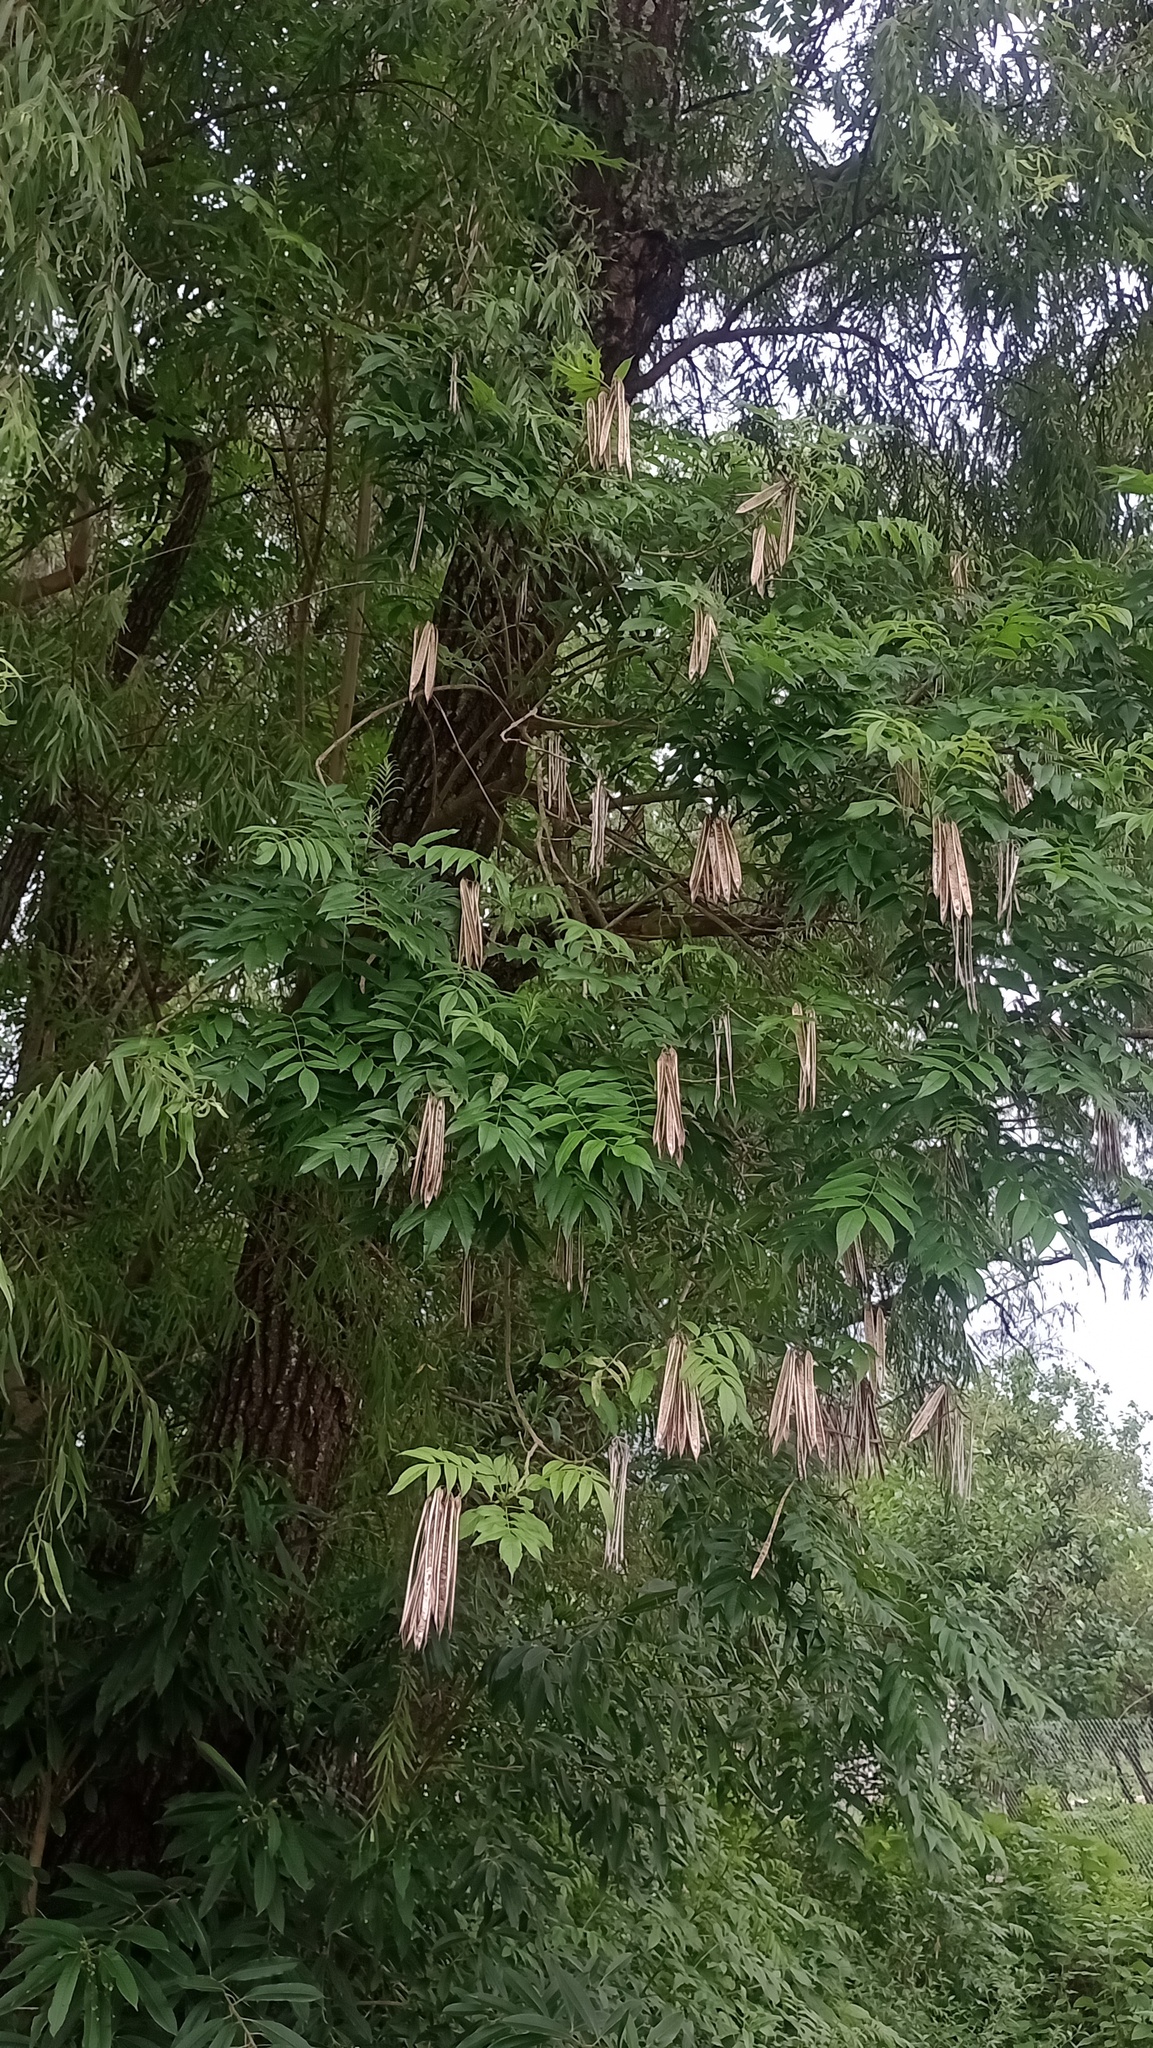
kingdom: Plantae
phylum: Tracheophyta
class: Magnoliopsida
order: Lamiales
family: Bignoniaceae
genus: Tecoma
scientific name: Tecoma stans
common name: Yellow trumpetbush
